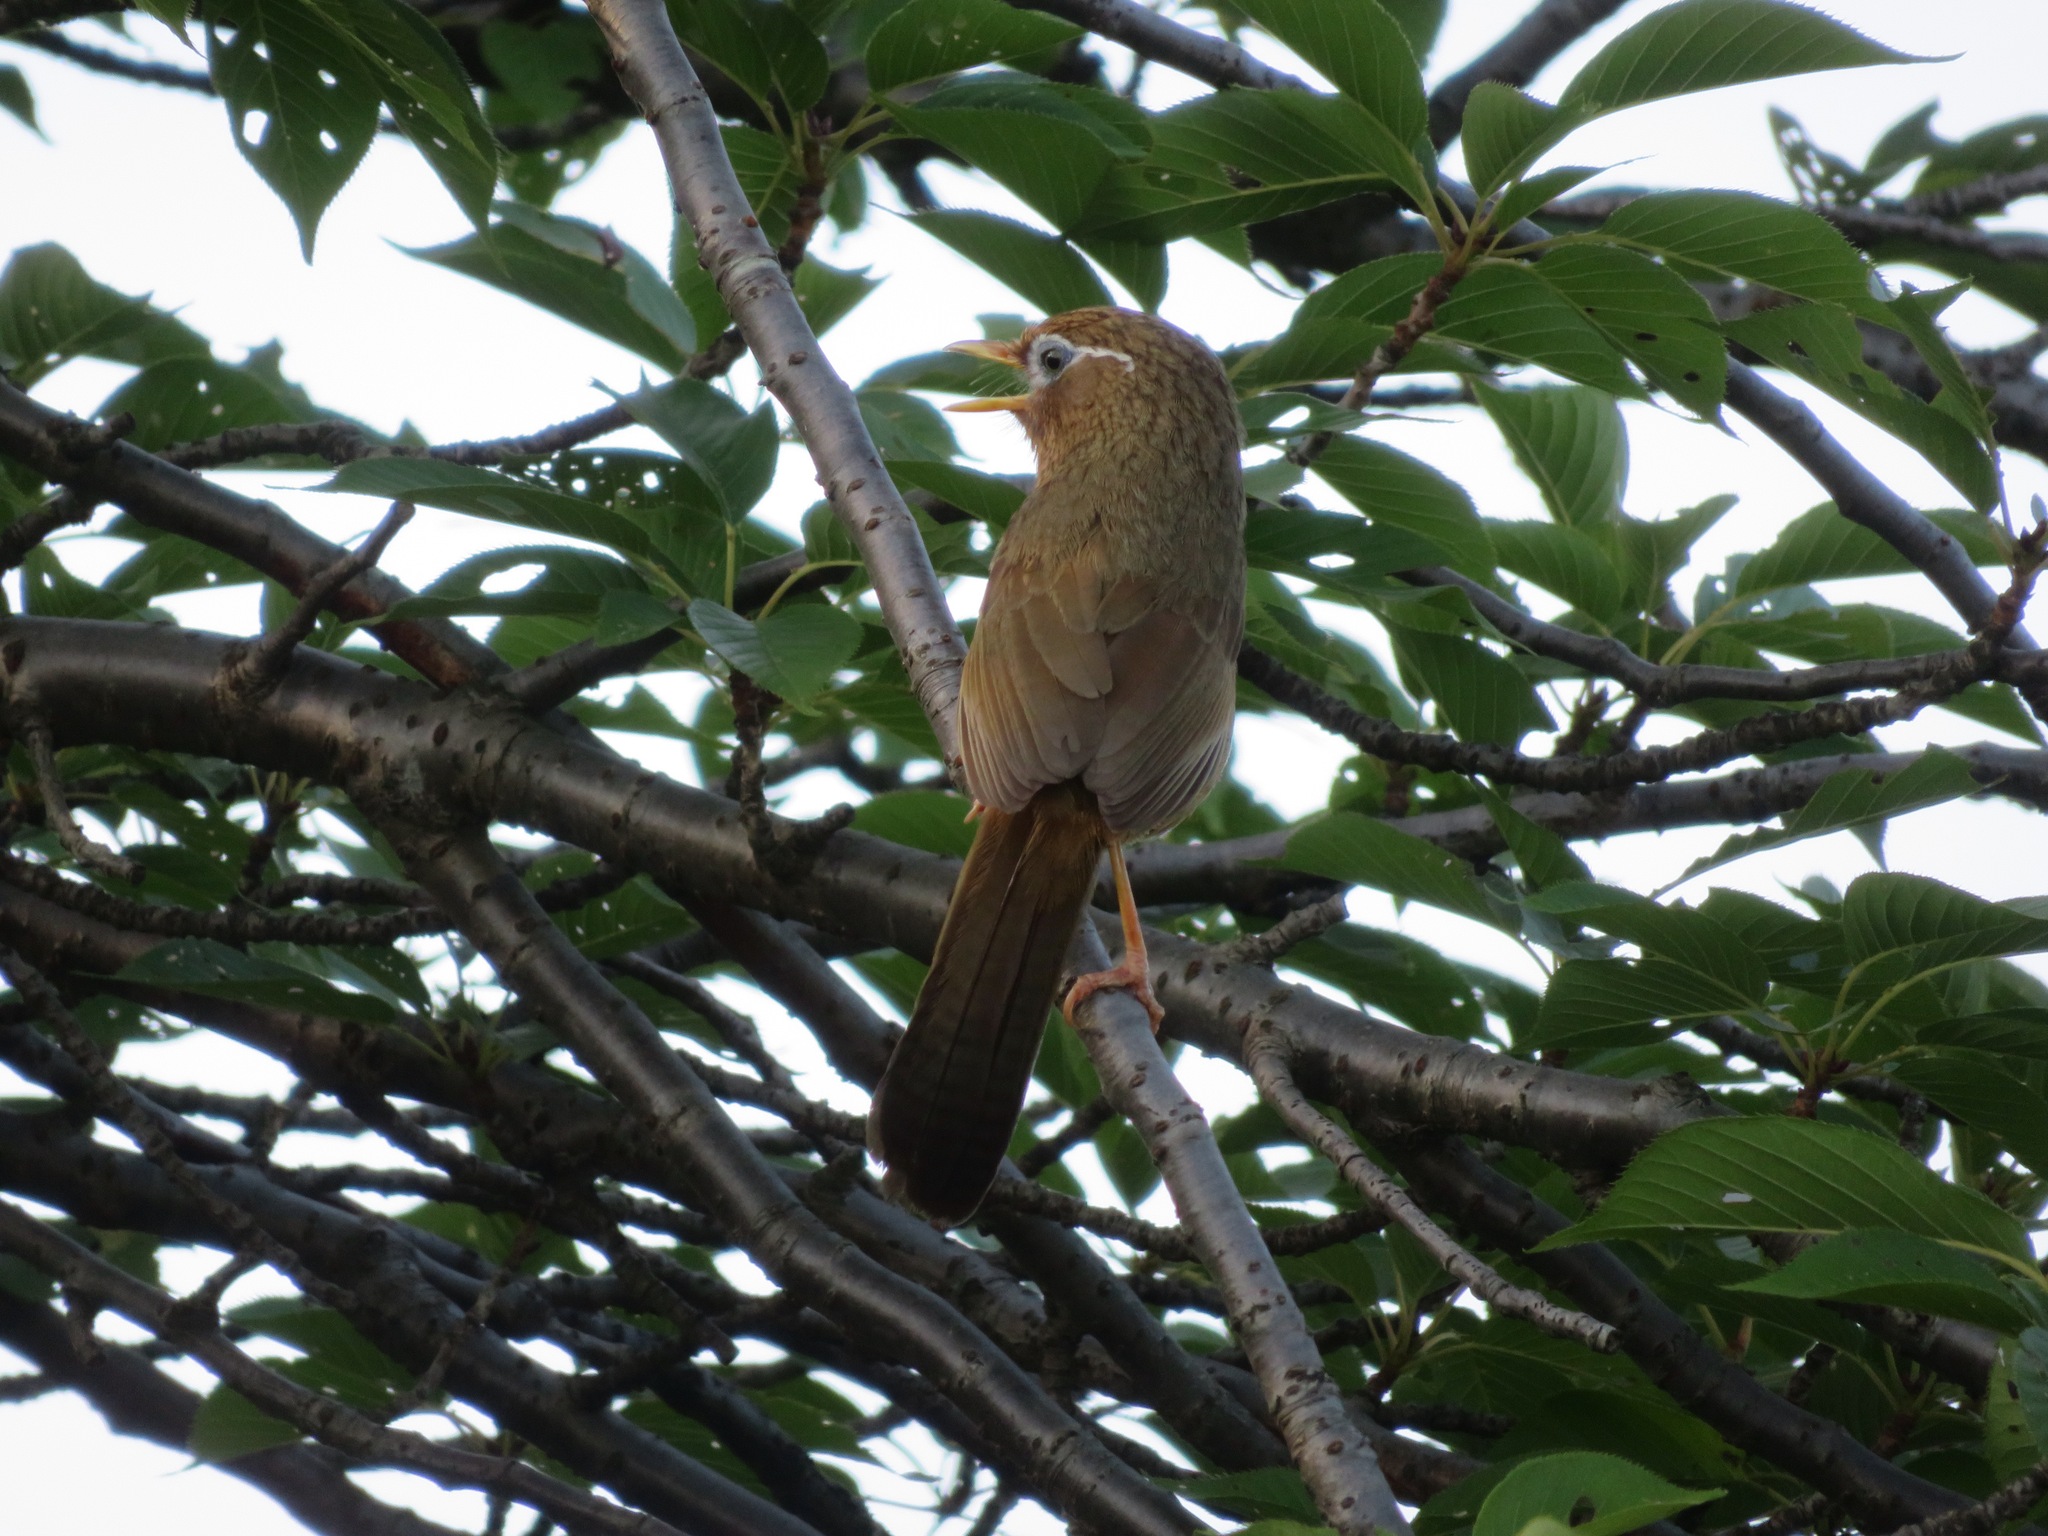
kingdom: Animalia
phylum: Chordata
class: Aves
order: Passeriformes
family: Leiothrichidae
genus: Garrulax
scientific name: Garrulax canorus
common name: Chinese hwamei
